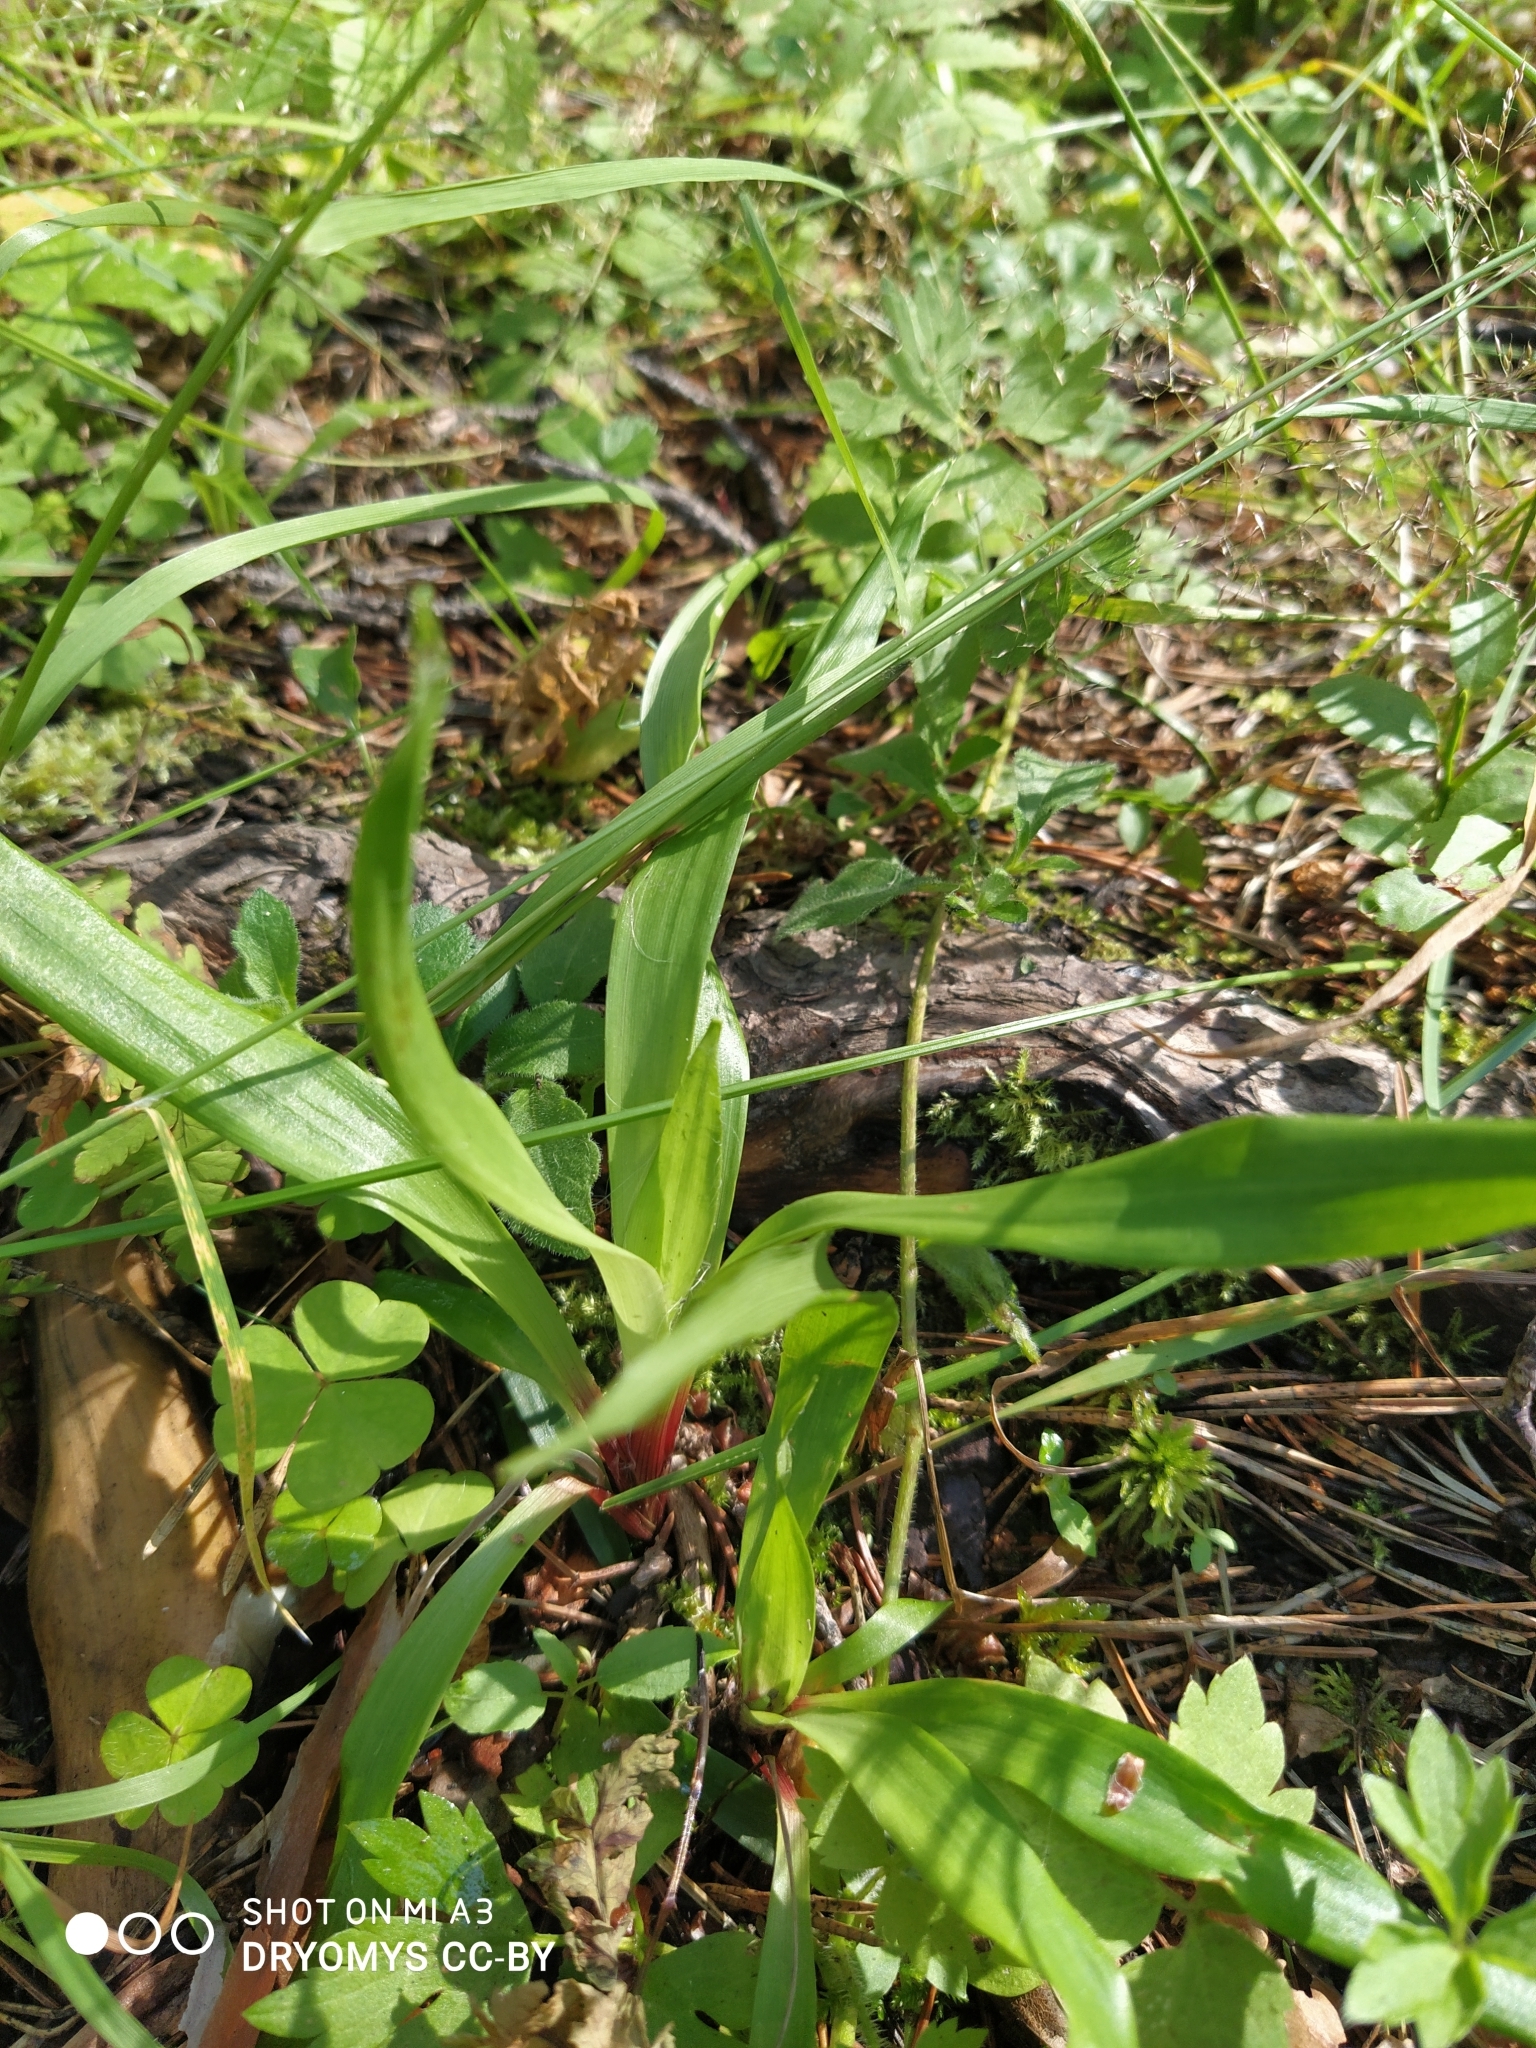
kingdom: Plantae
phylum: Tracheophyta
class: Liliopsida
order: Poales
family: Juncaceae
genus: Luzula
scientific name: Luzula pilosa
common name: Hairy wood-rush
